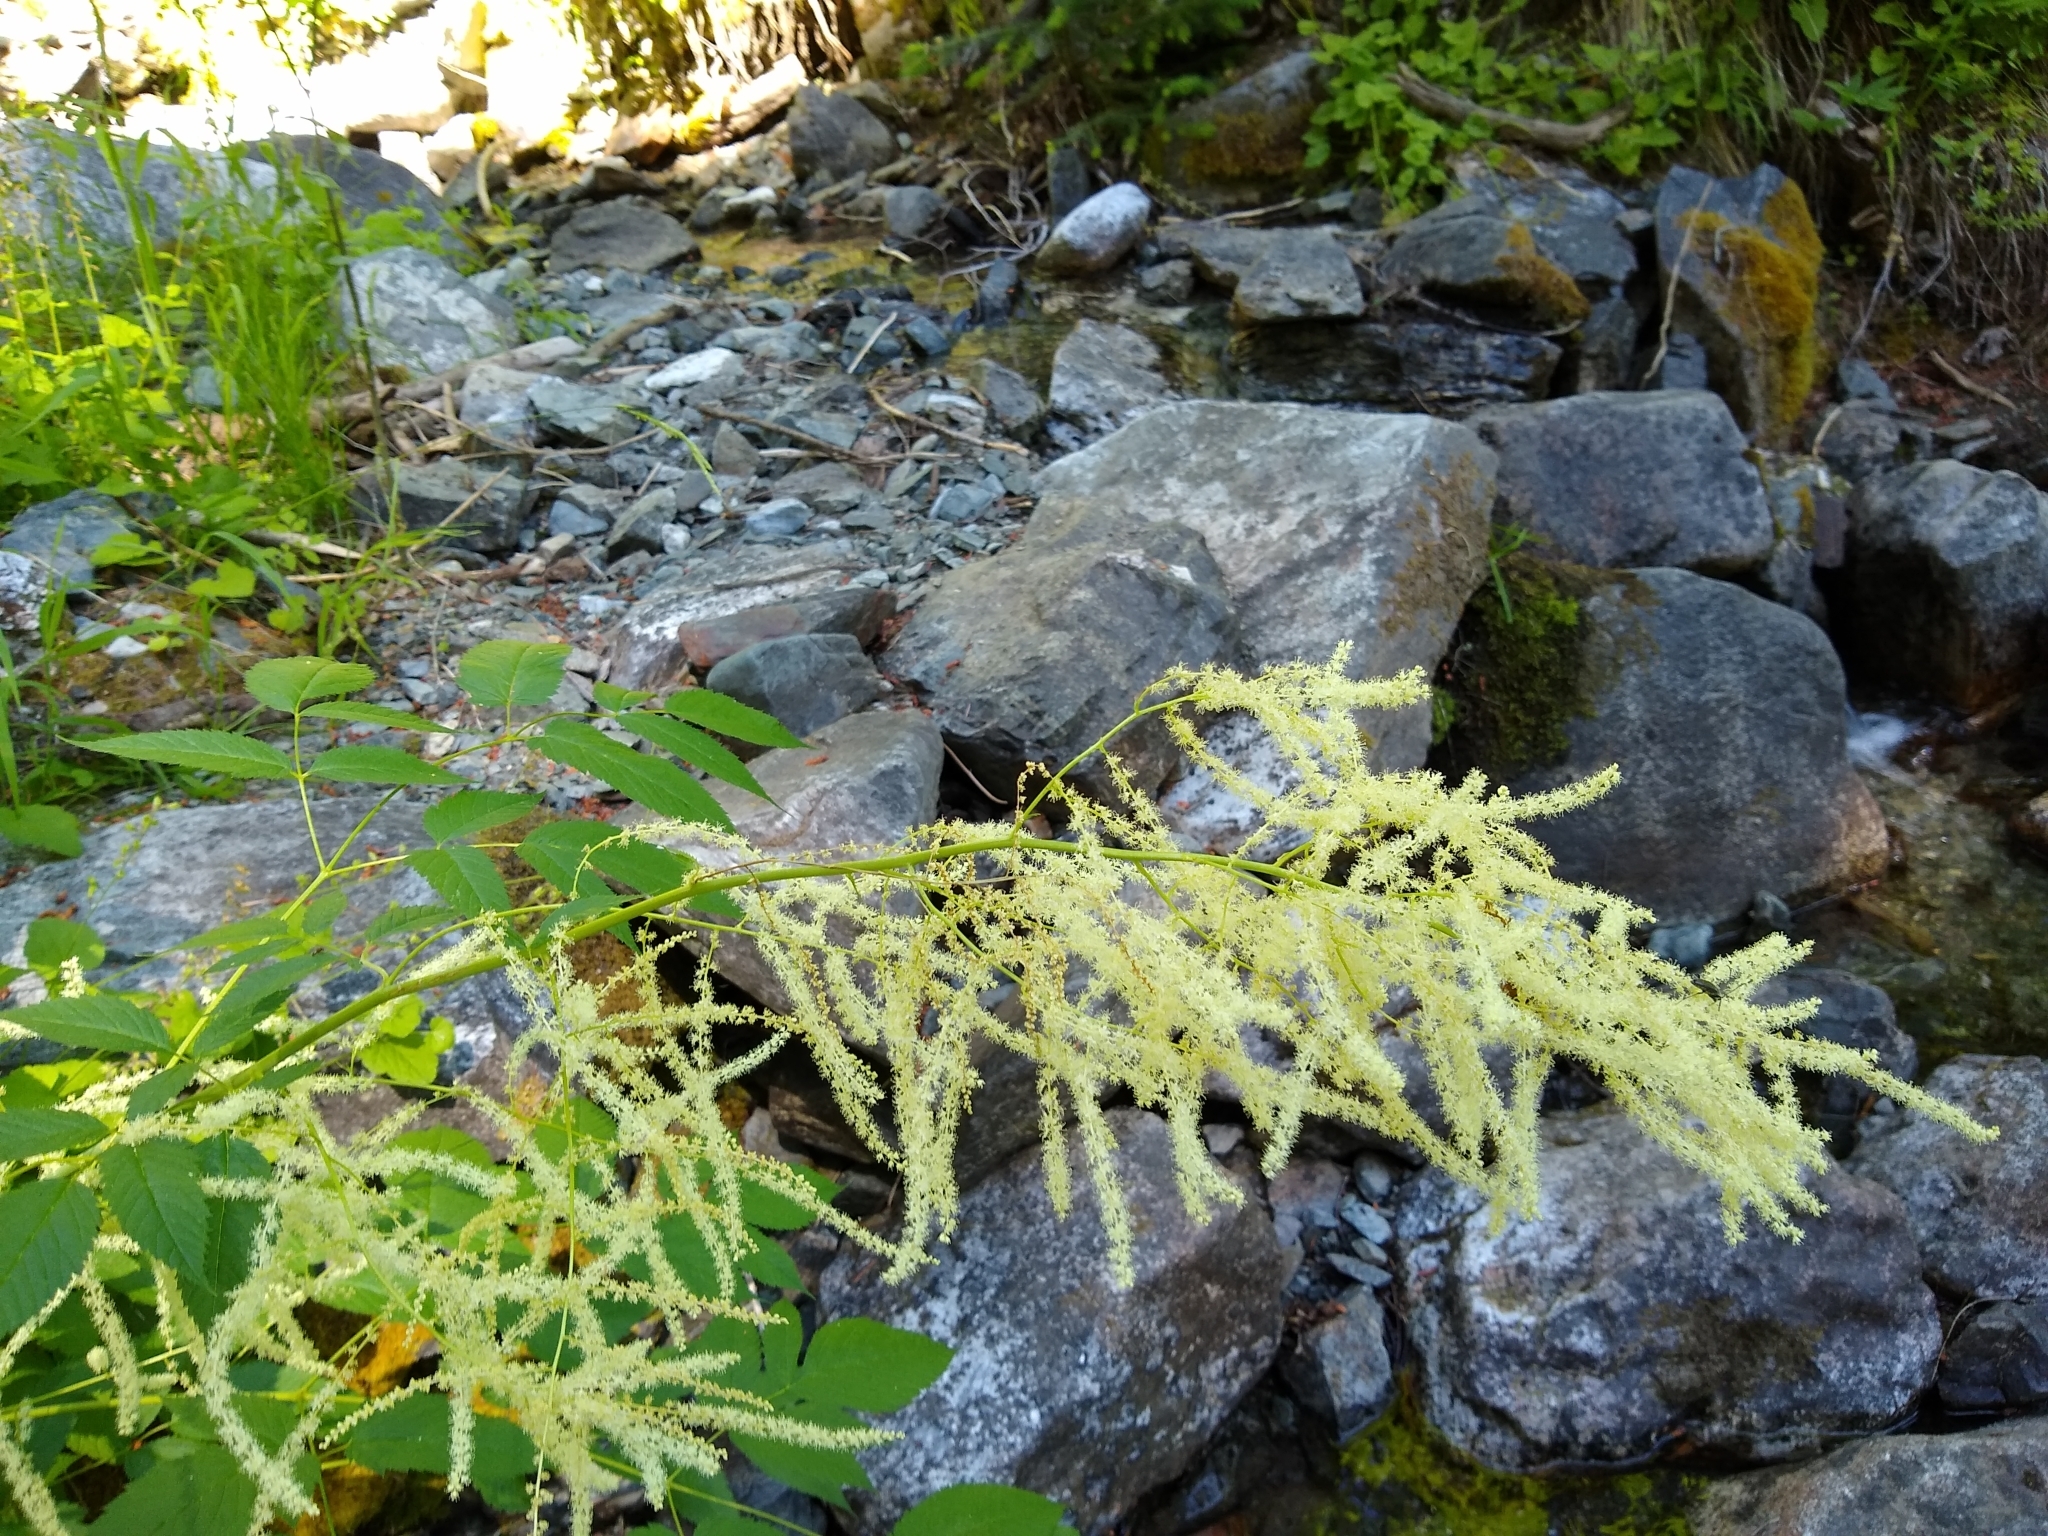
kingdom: Plantae
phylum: Tracheophyta
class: Magnoliopsida
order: Rosales
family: Rosaceae
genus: Aruncus
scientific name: Aruncus dioicus
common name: Buck's-beard
